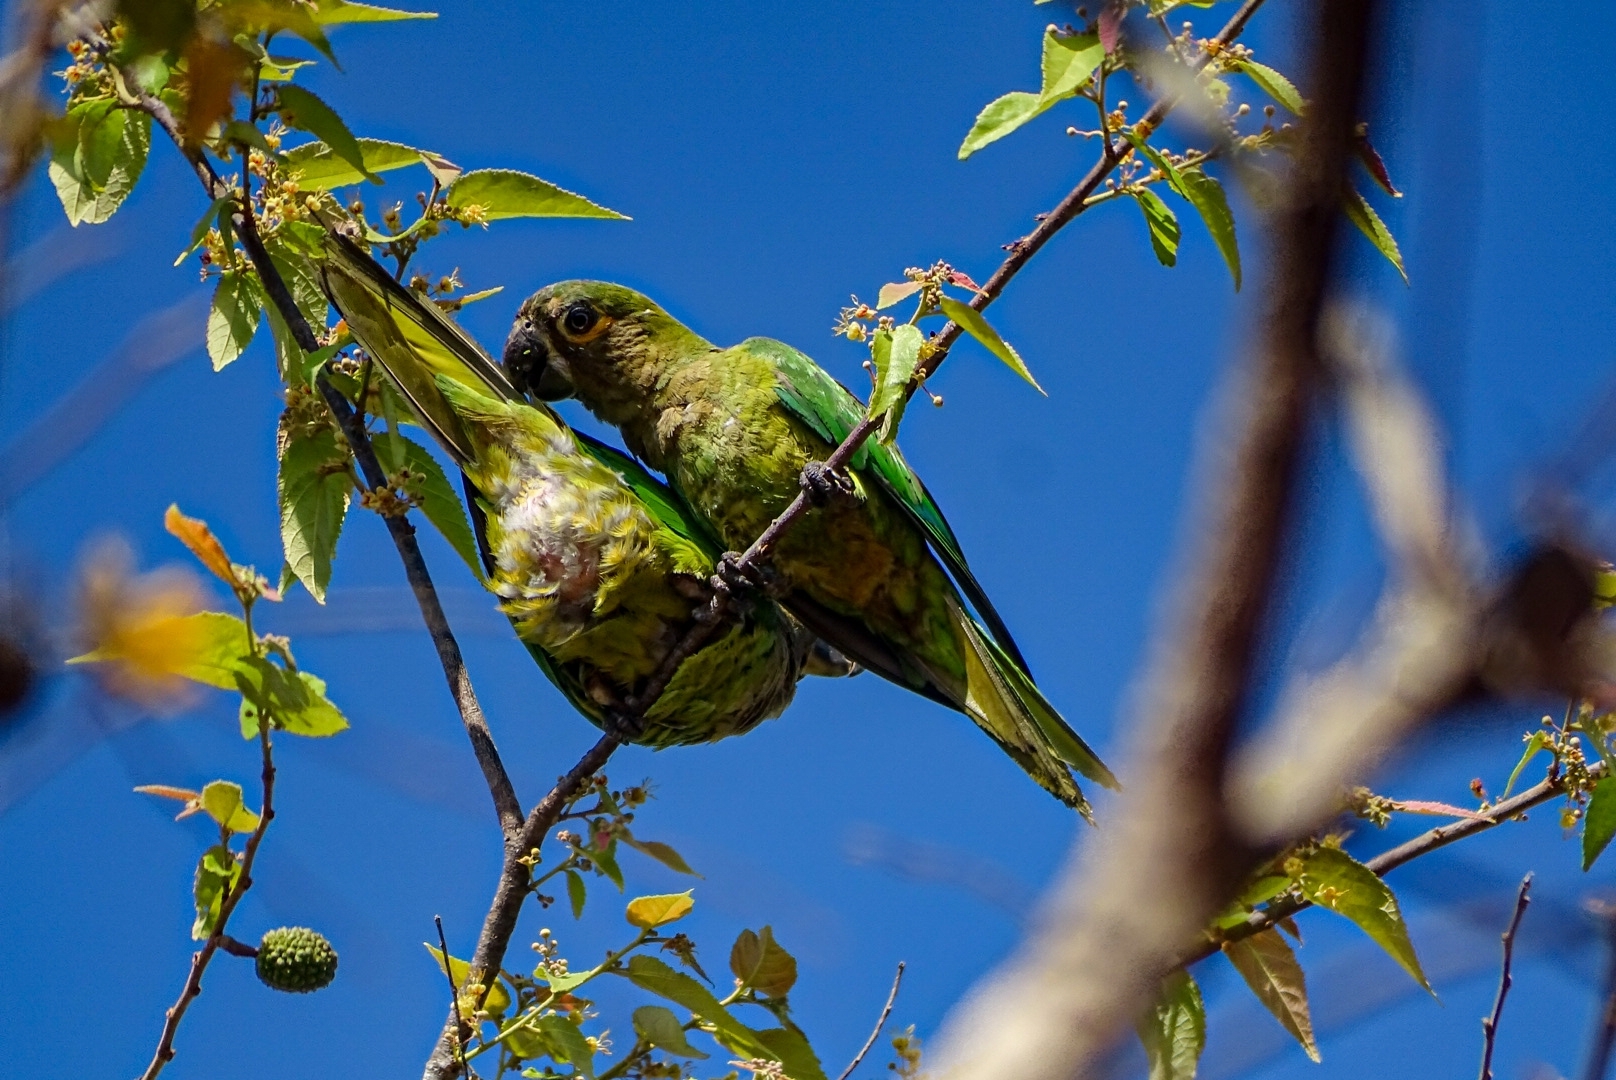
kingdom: Animalia
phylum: Chordata
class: Aves
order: Psittaciformes
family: Psittacidae
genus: Aratinga
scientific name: Aratinga pertinax
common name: Brown-throated parakeet
